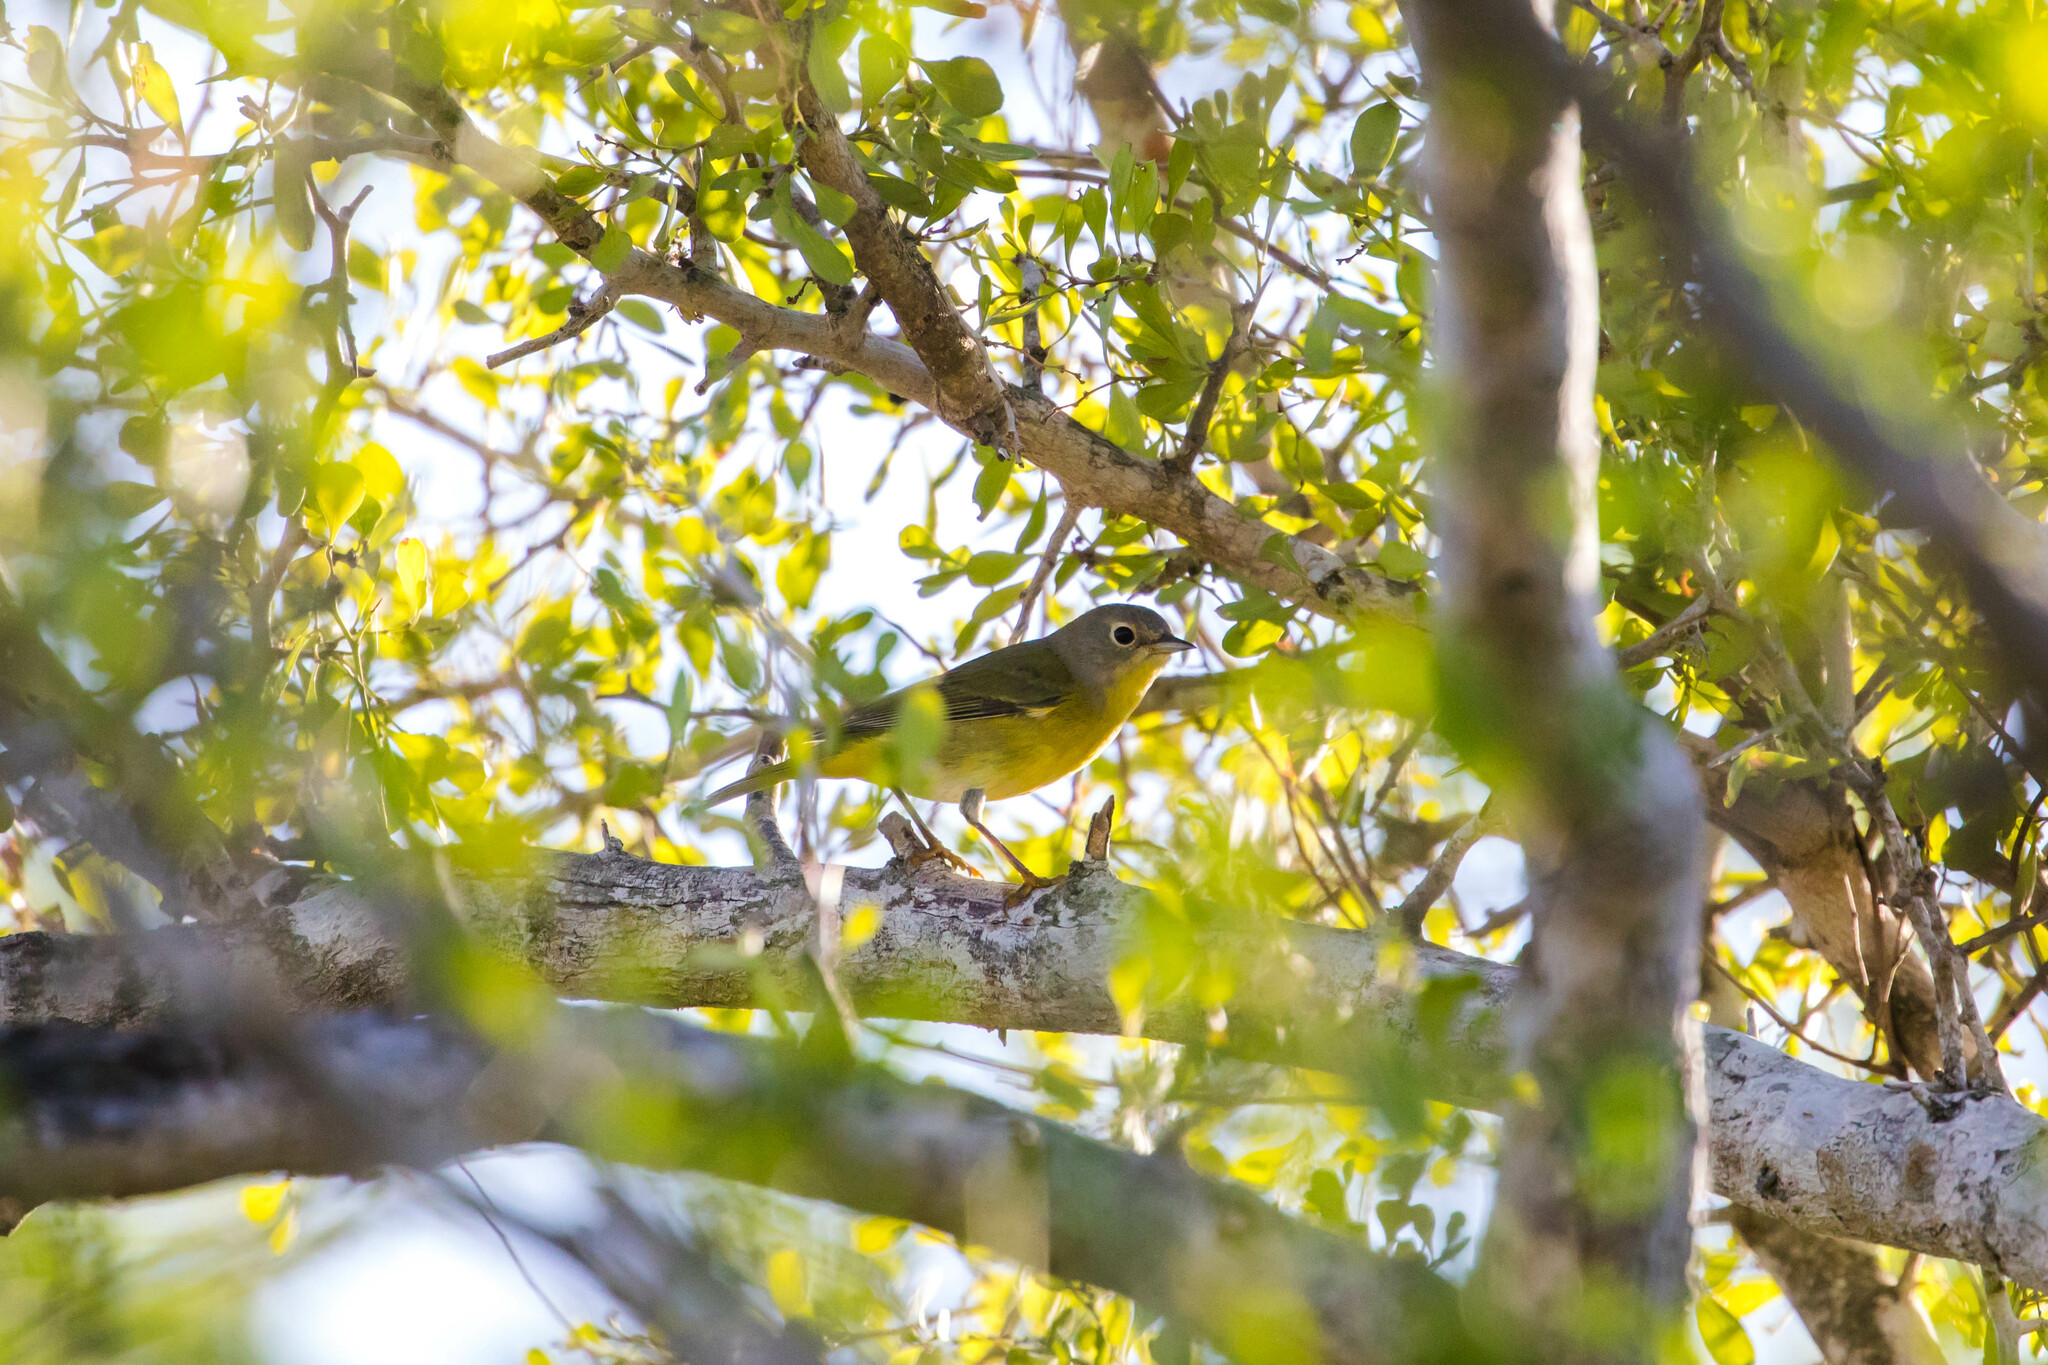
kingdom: Animalia
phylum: Chordata
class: Aves
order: Passeriformes
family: Parulidae
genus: Leiothlypis
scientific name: Leiothlypis ruficapilla
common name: Nashville warbler
